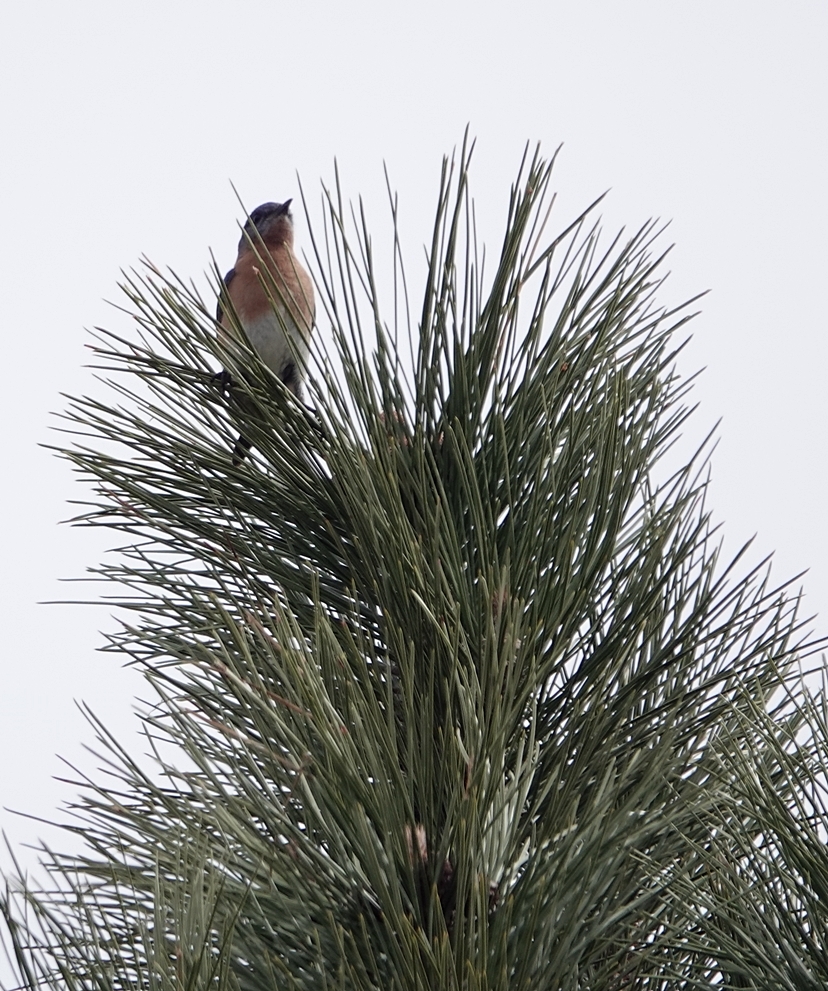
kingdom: Animalia
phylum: Chordata
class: Aves
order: Passeriformes
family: Turdidae
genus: Sialia
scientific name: Sialia sialis
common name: Eastern bluebird
